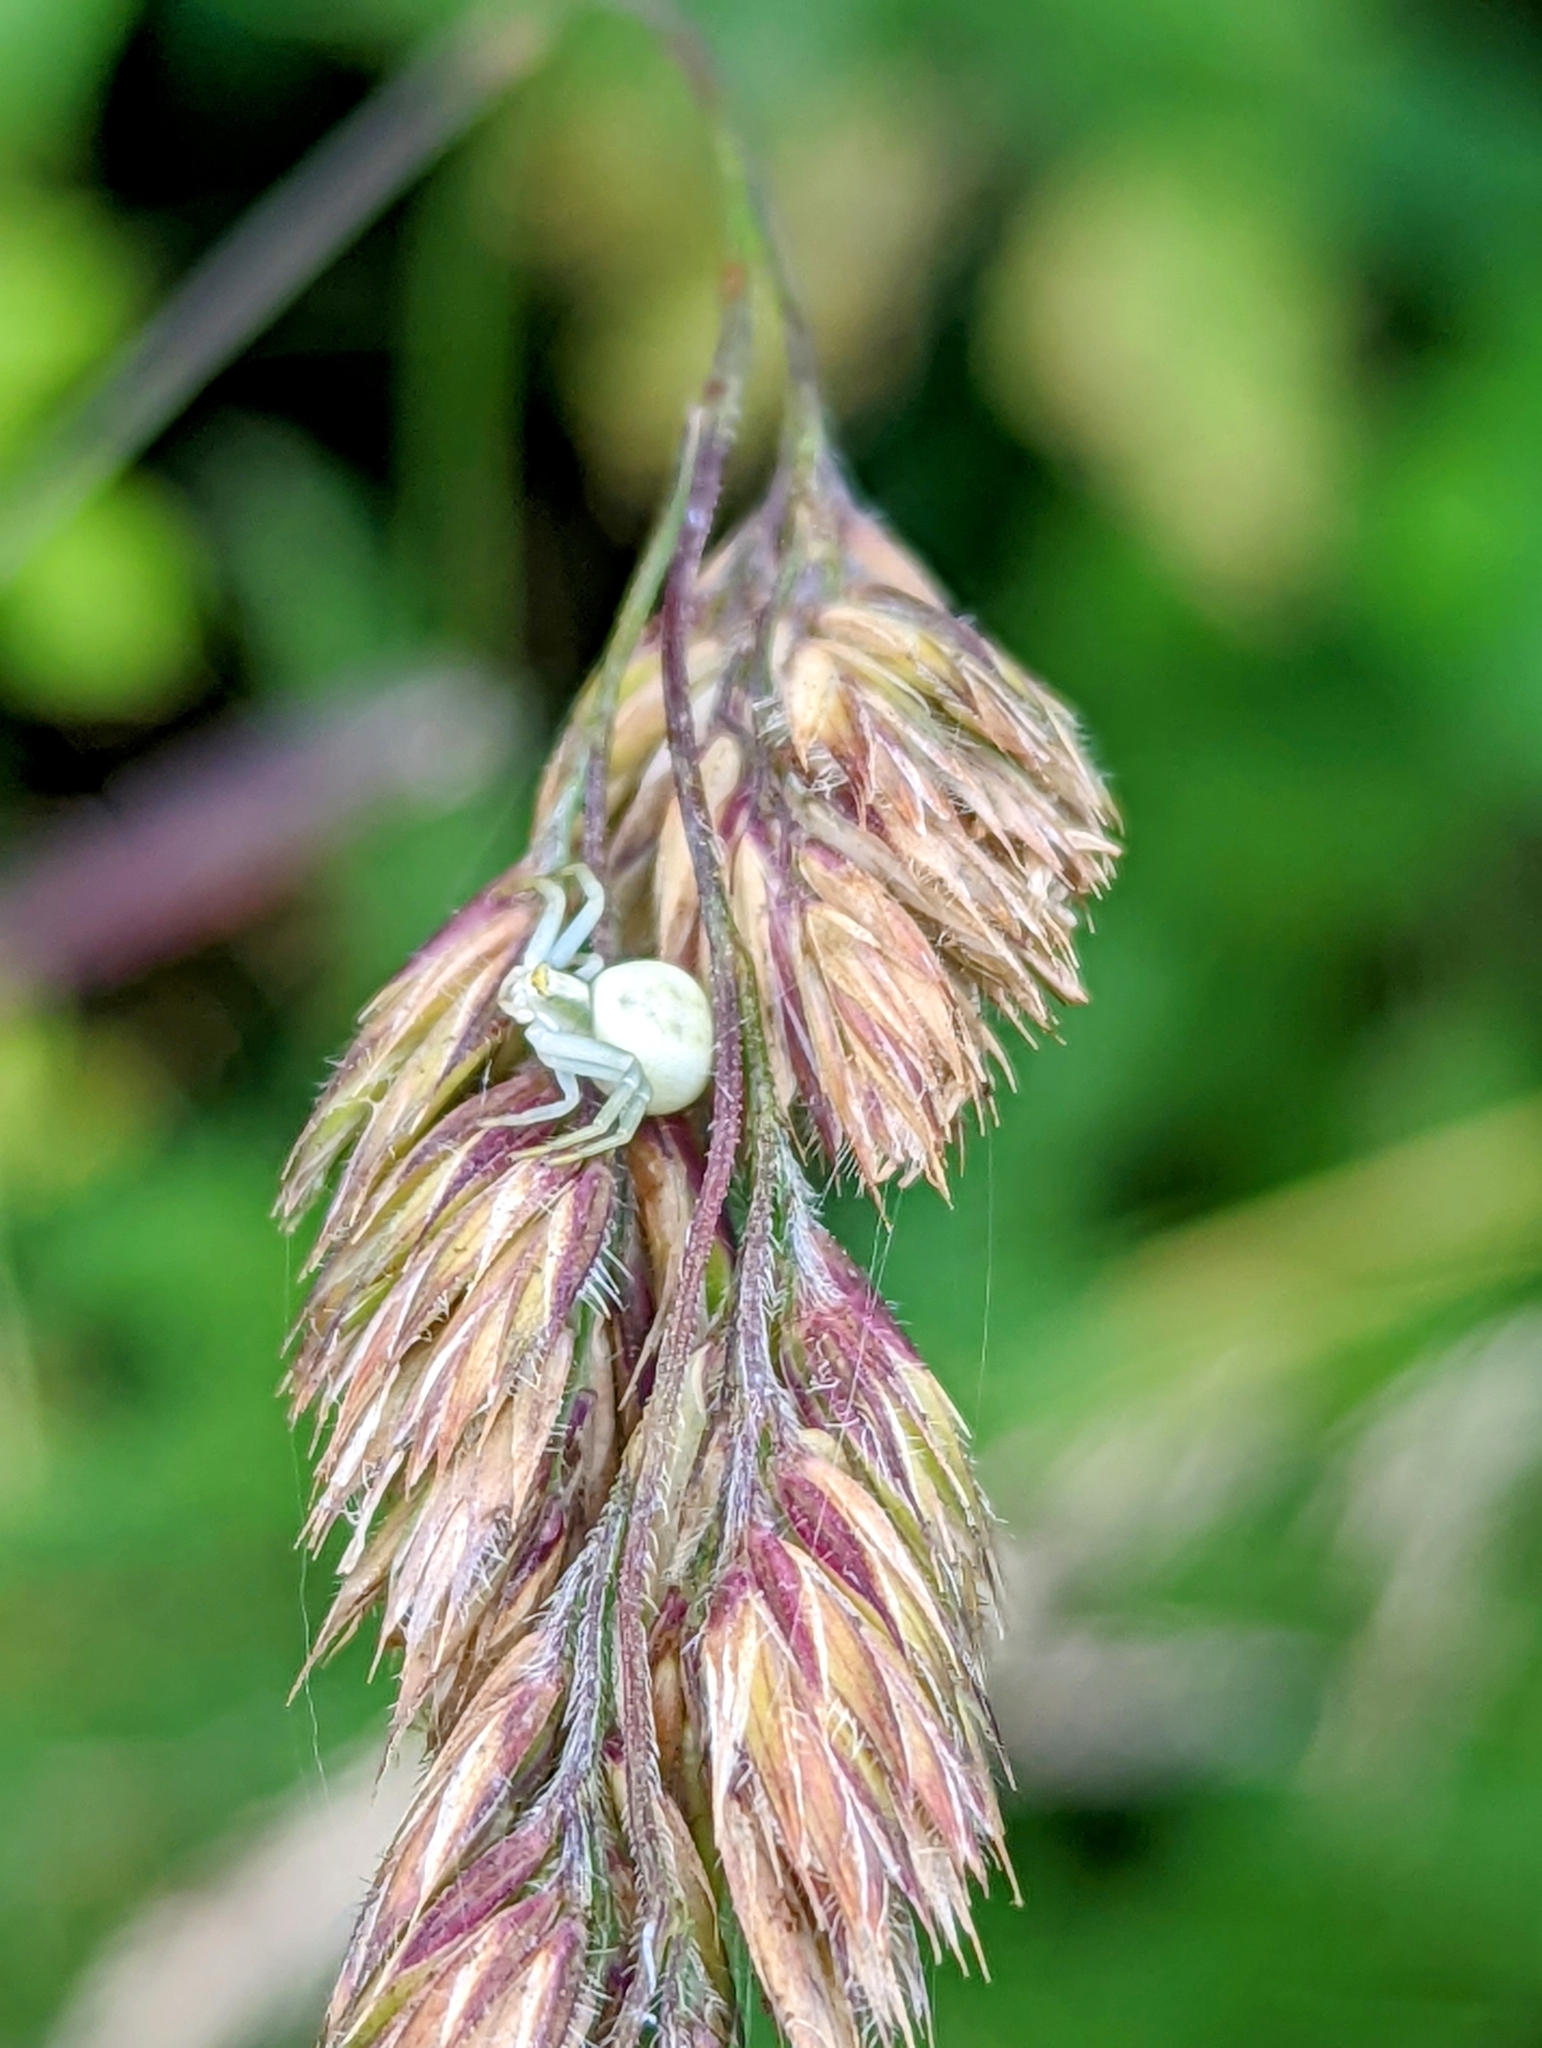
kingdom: Animalia
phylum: Arthropoda
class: Arachnida
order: Araneae
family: Thomisidae
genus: Misumena
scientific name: Misumena vatia
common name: Goldenrod crab spider
